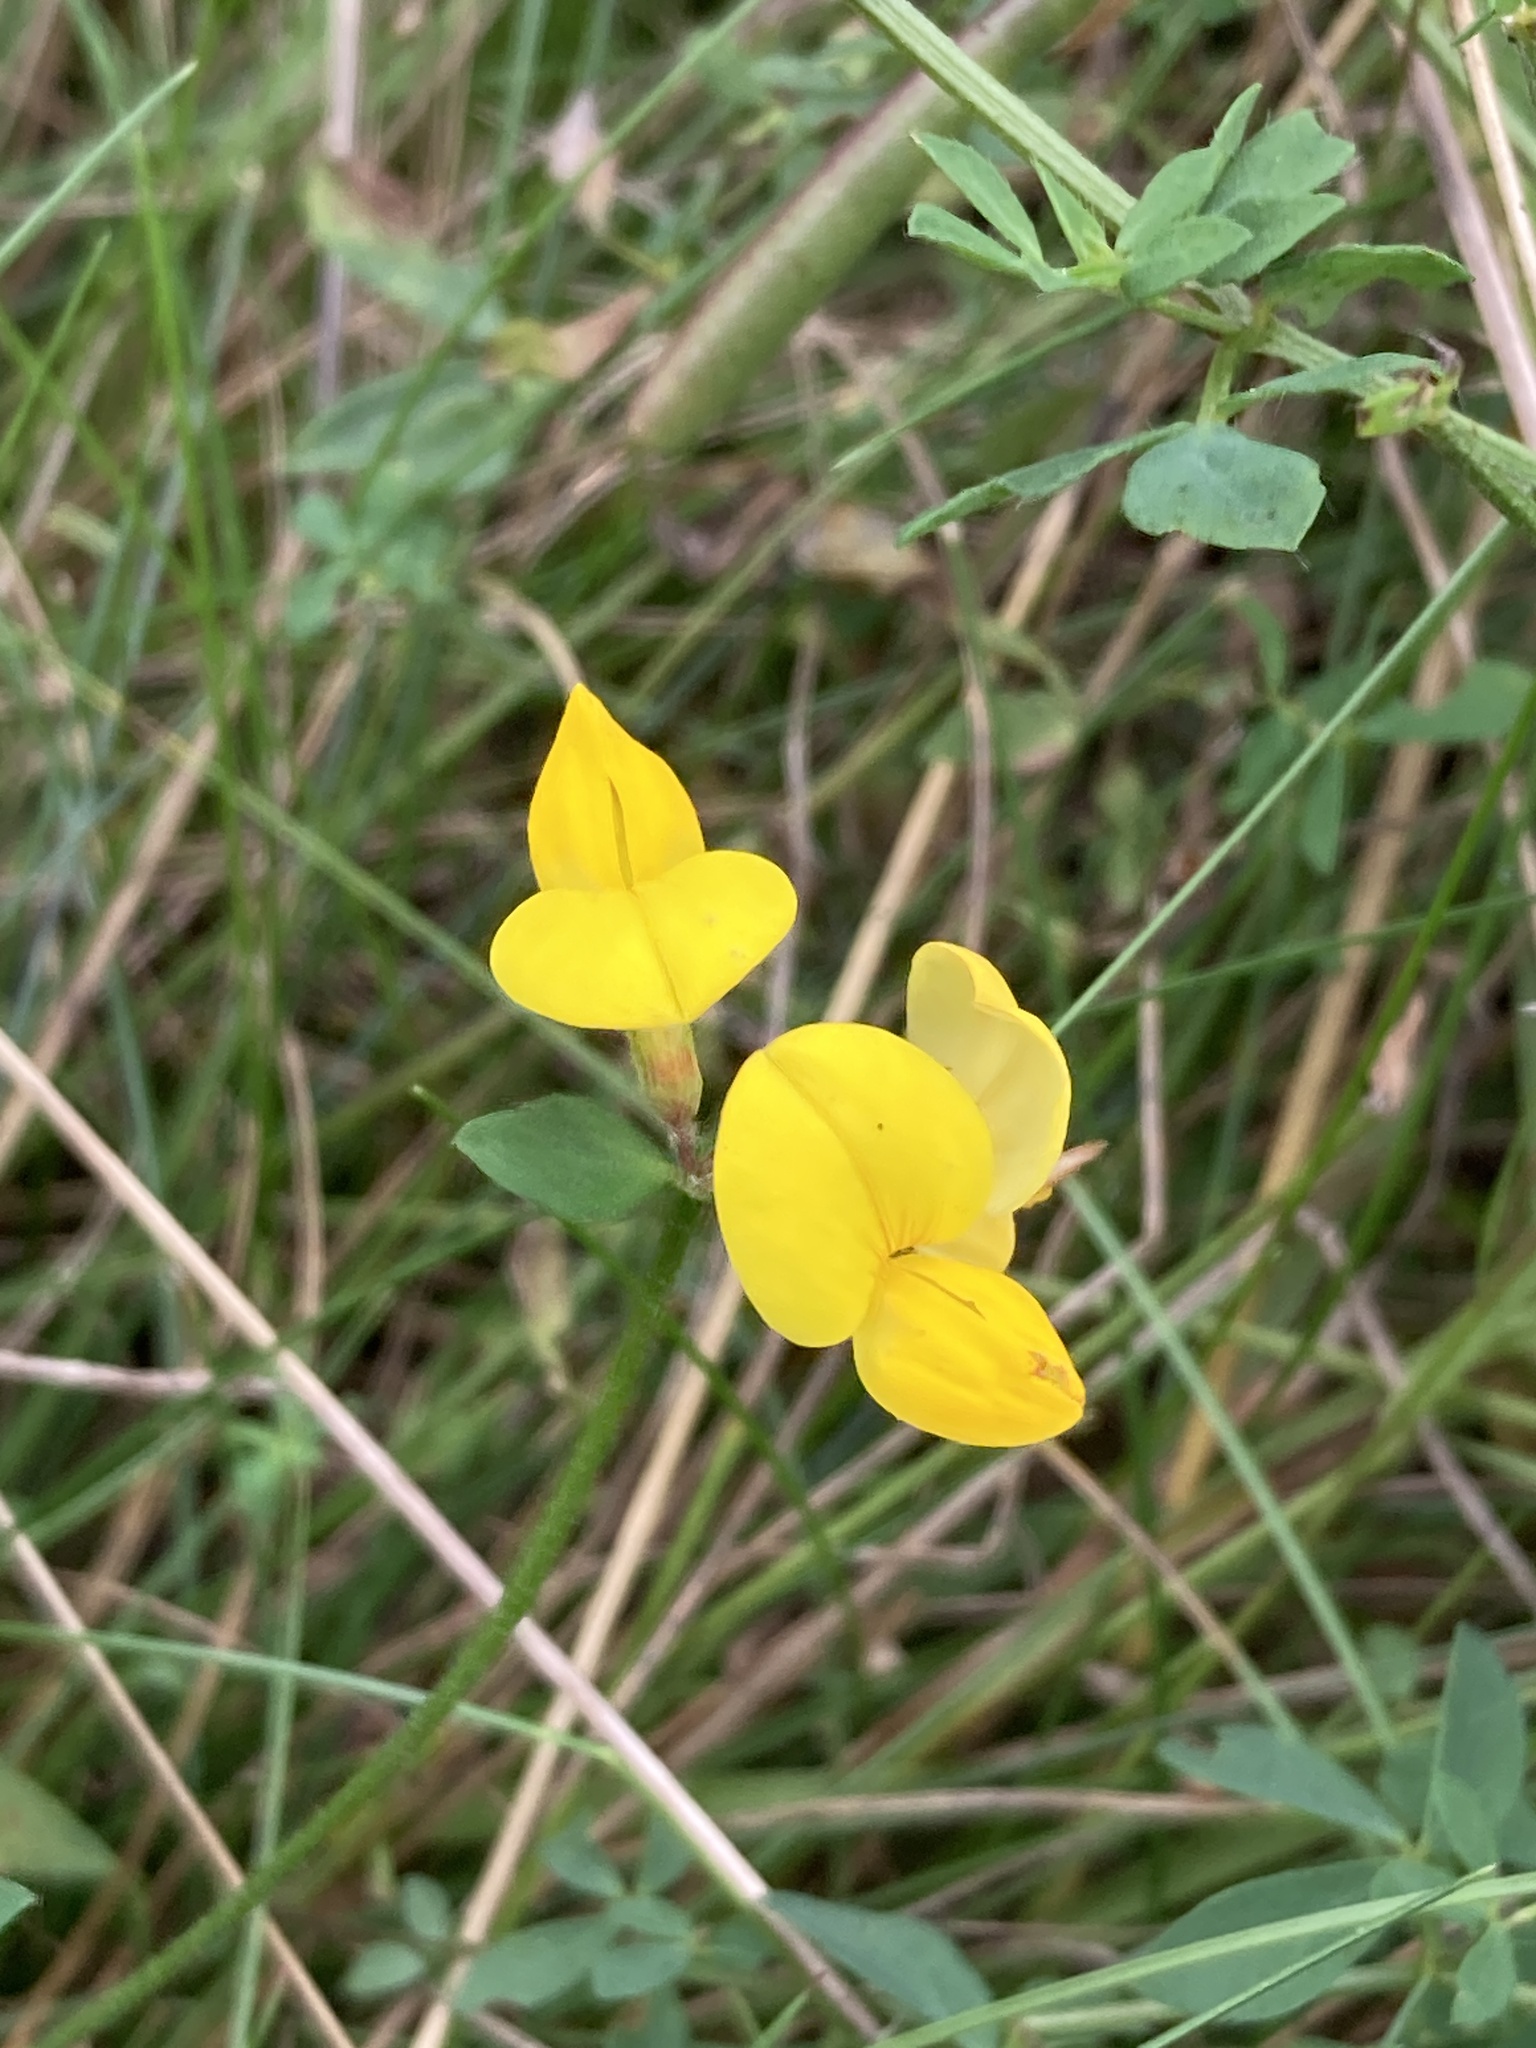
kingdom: Plantae
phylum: Tracheophyta
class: Magnoliopsida
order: Fabales
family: Fabaceae
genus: Lotus
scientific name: Lotus corniculatus
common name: Common bird's-foot-trefoil
